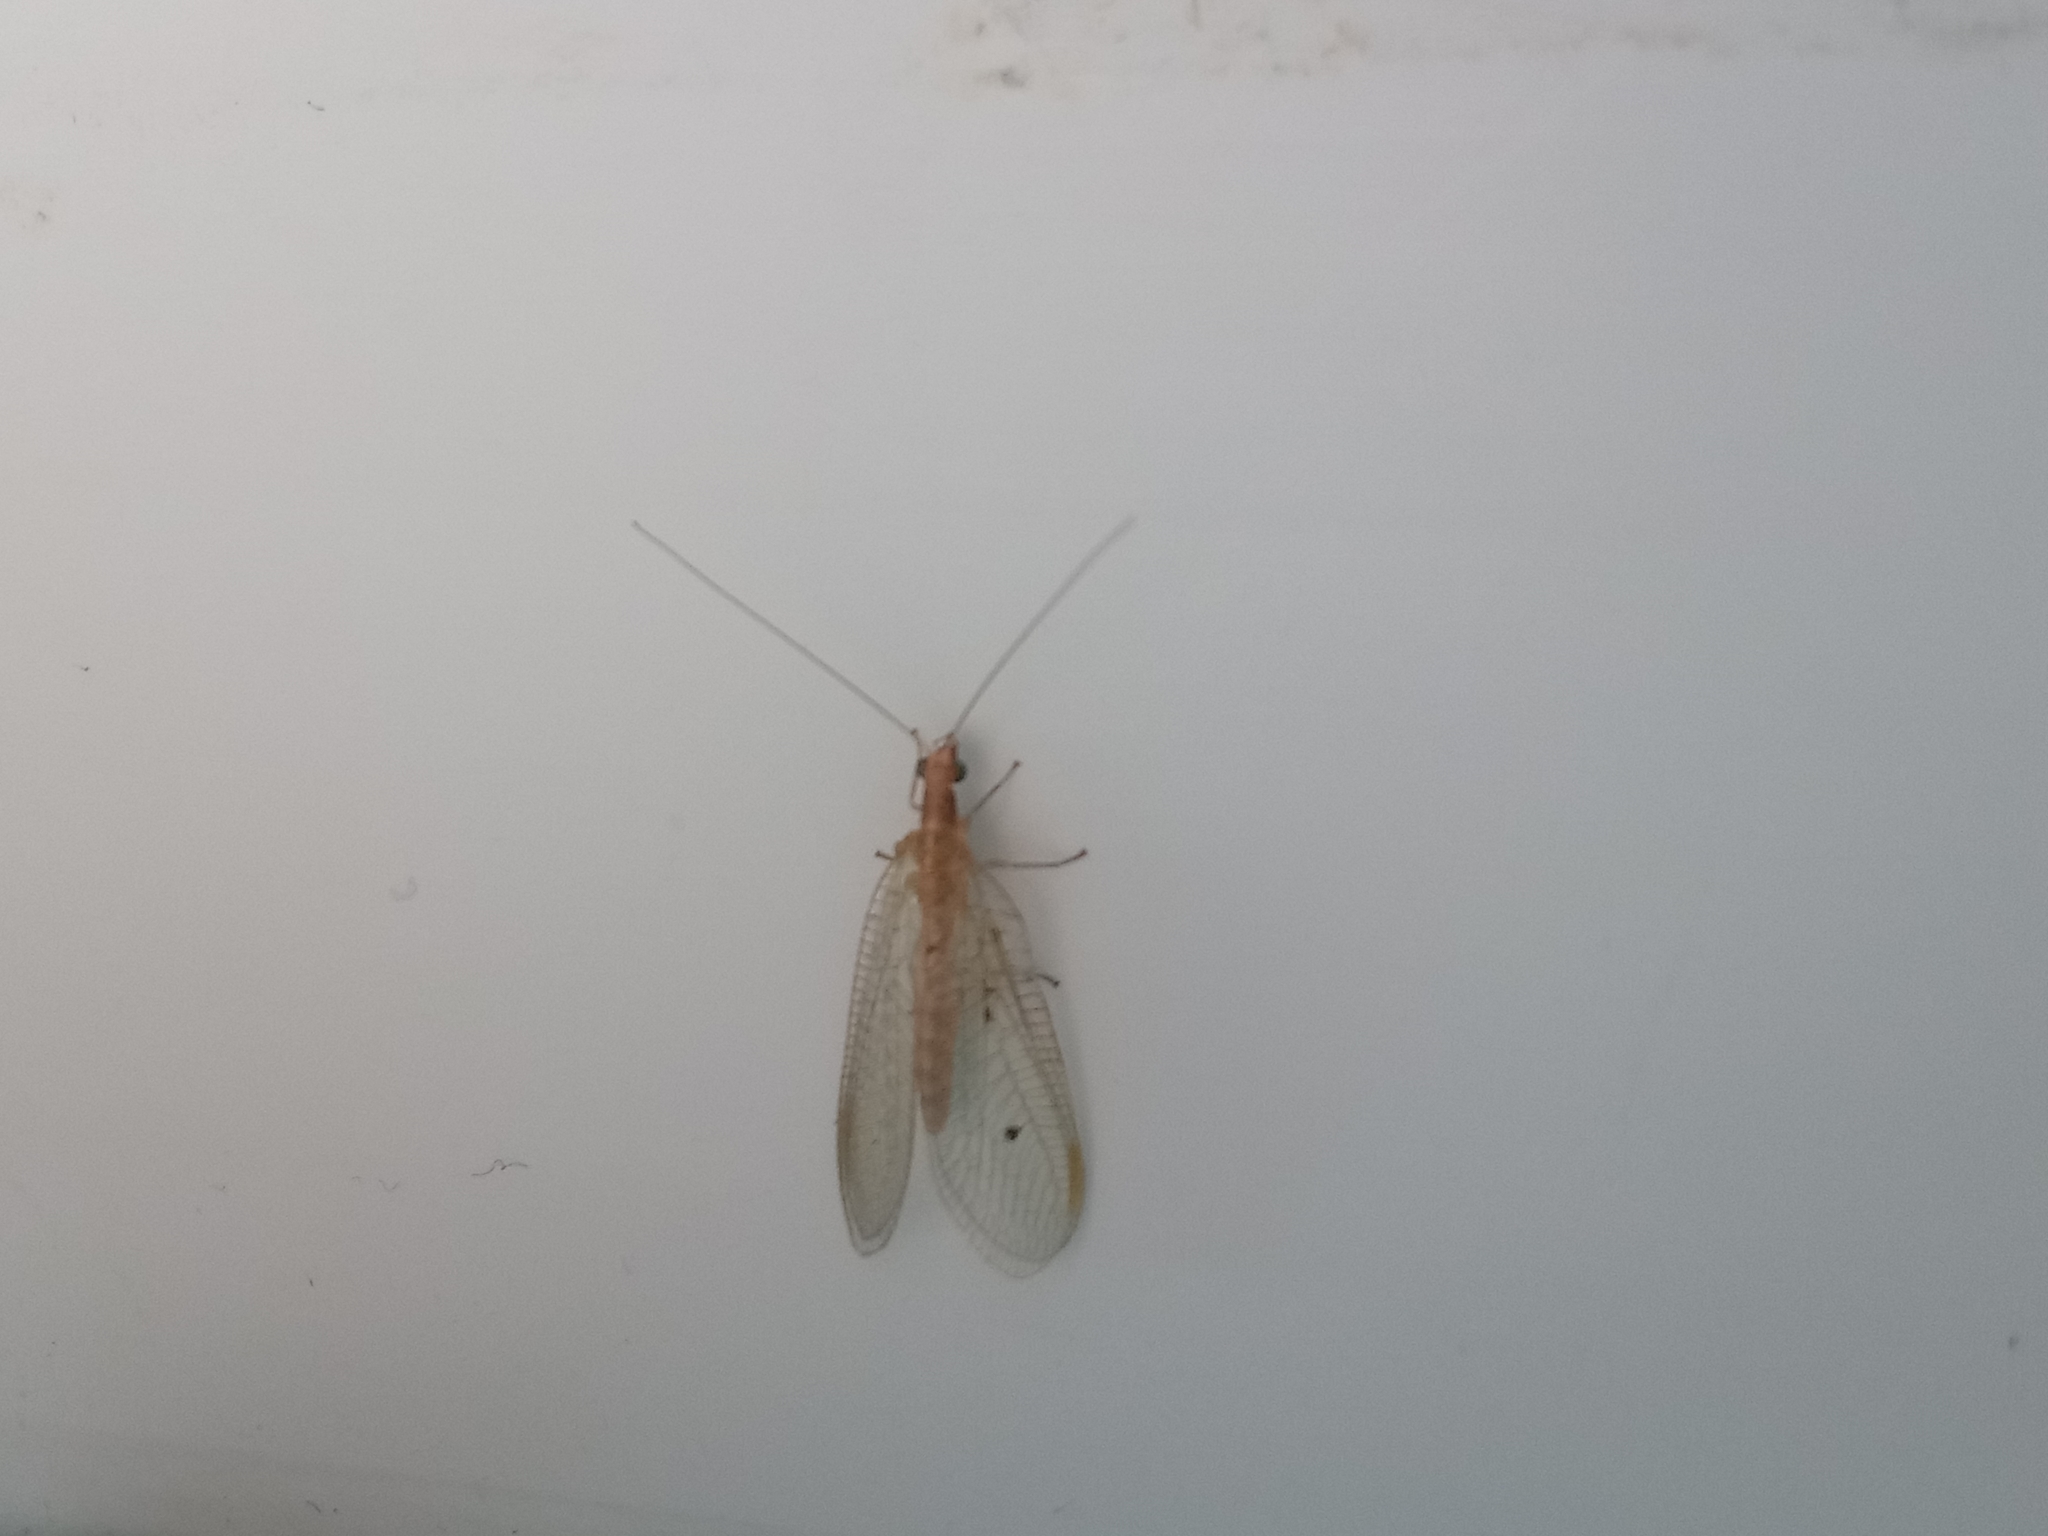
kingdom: Animalia
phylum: Arthropoda
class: Insecta
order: Neuroptera
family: Chrysopidae
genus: Chrysoperla
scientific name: Chrysoperla
